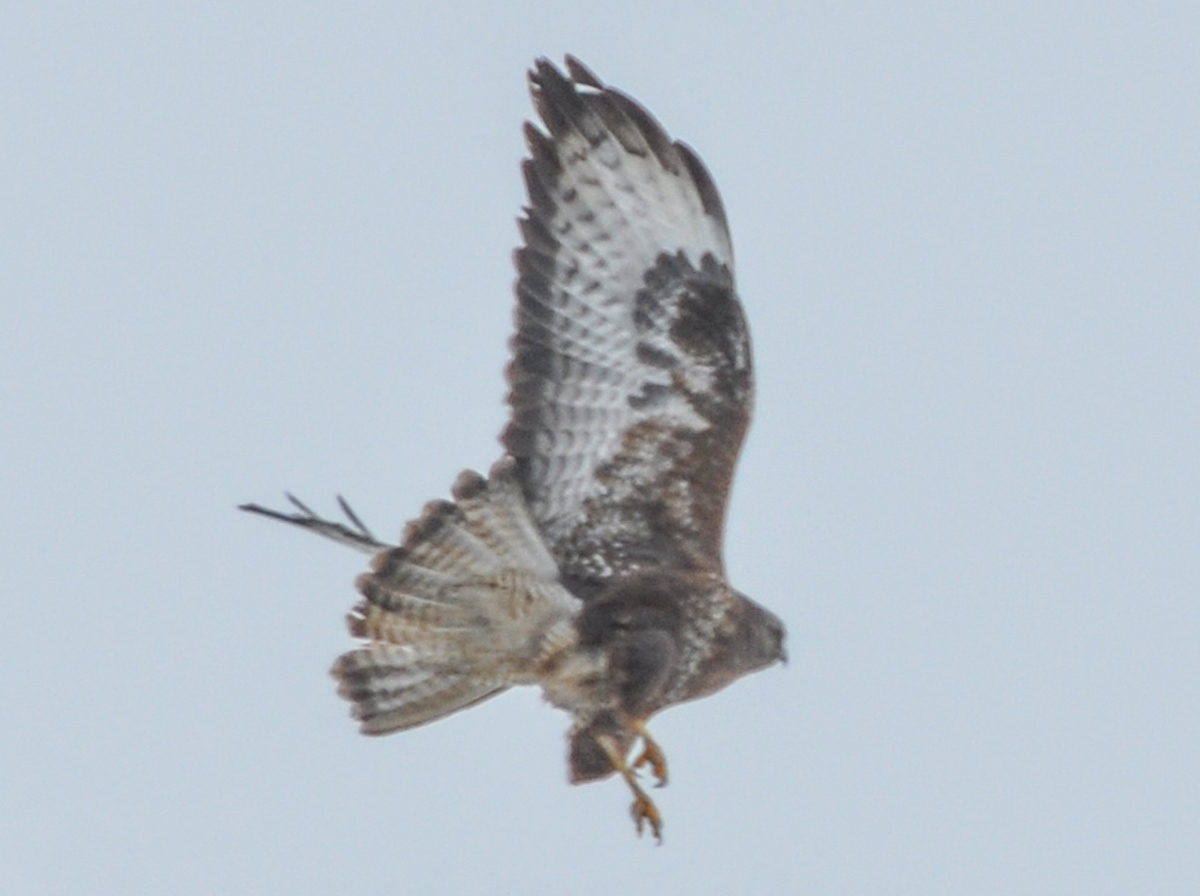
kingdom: Animalia
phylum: Chordata
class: Aves
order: Accipitriformes
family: Accipitridae
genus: Buteo
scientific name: Buteo buteo
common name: Common buzzard
